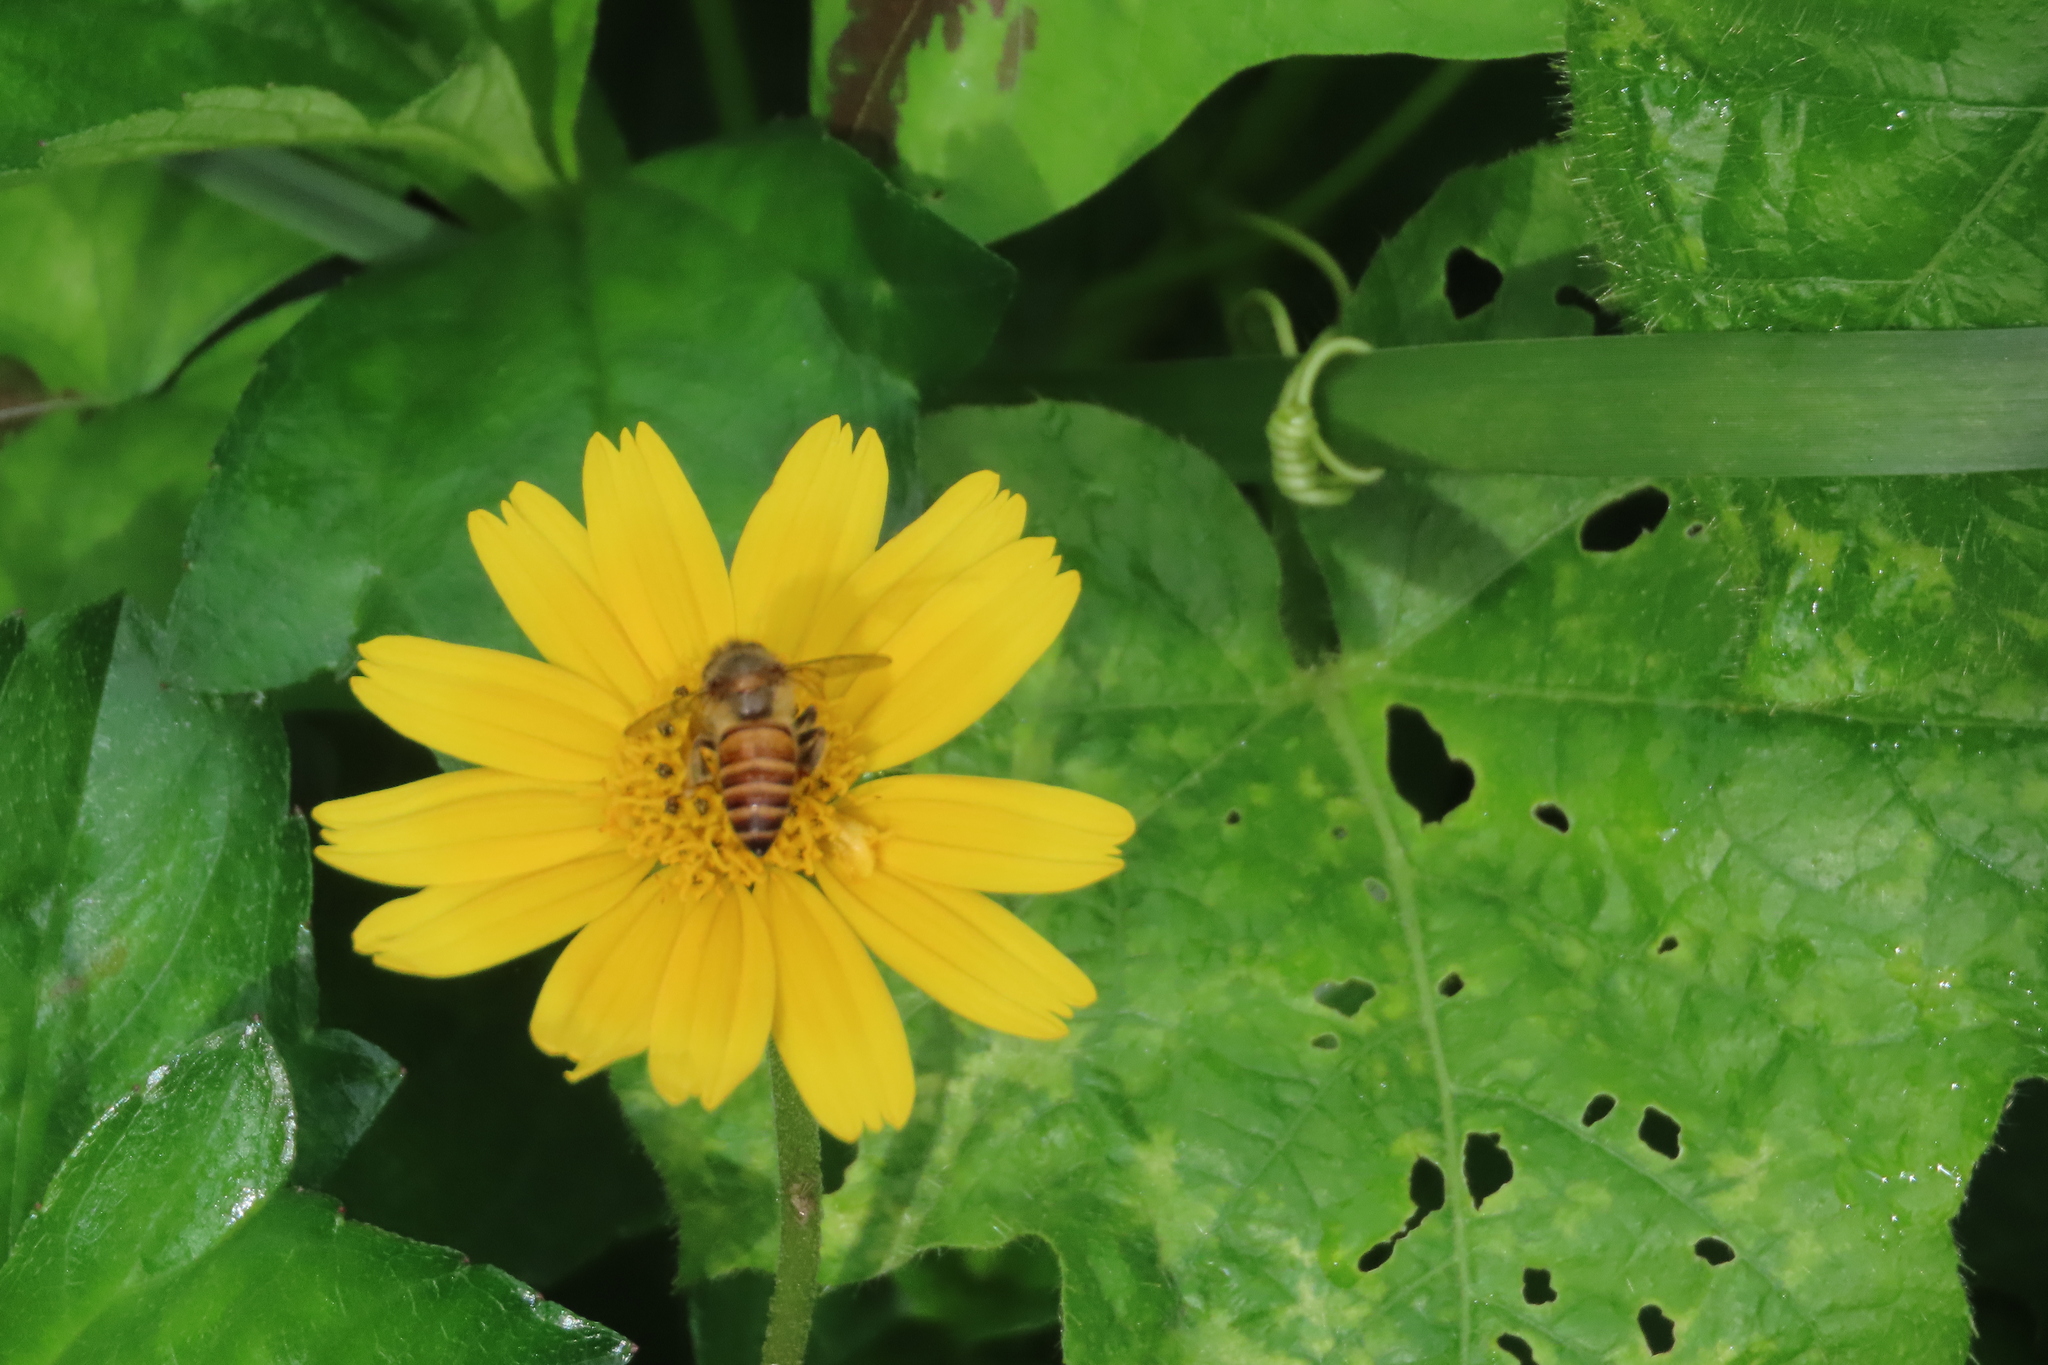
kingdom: Animalia
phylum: Arthropoda
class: Insecta
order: Hymenoptera
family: Apidae
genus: Apis
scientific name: Apis cerana
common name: Honey bee
